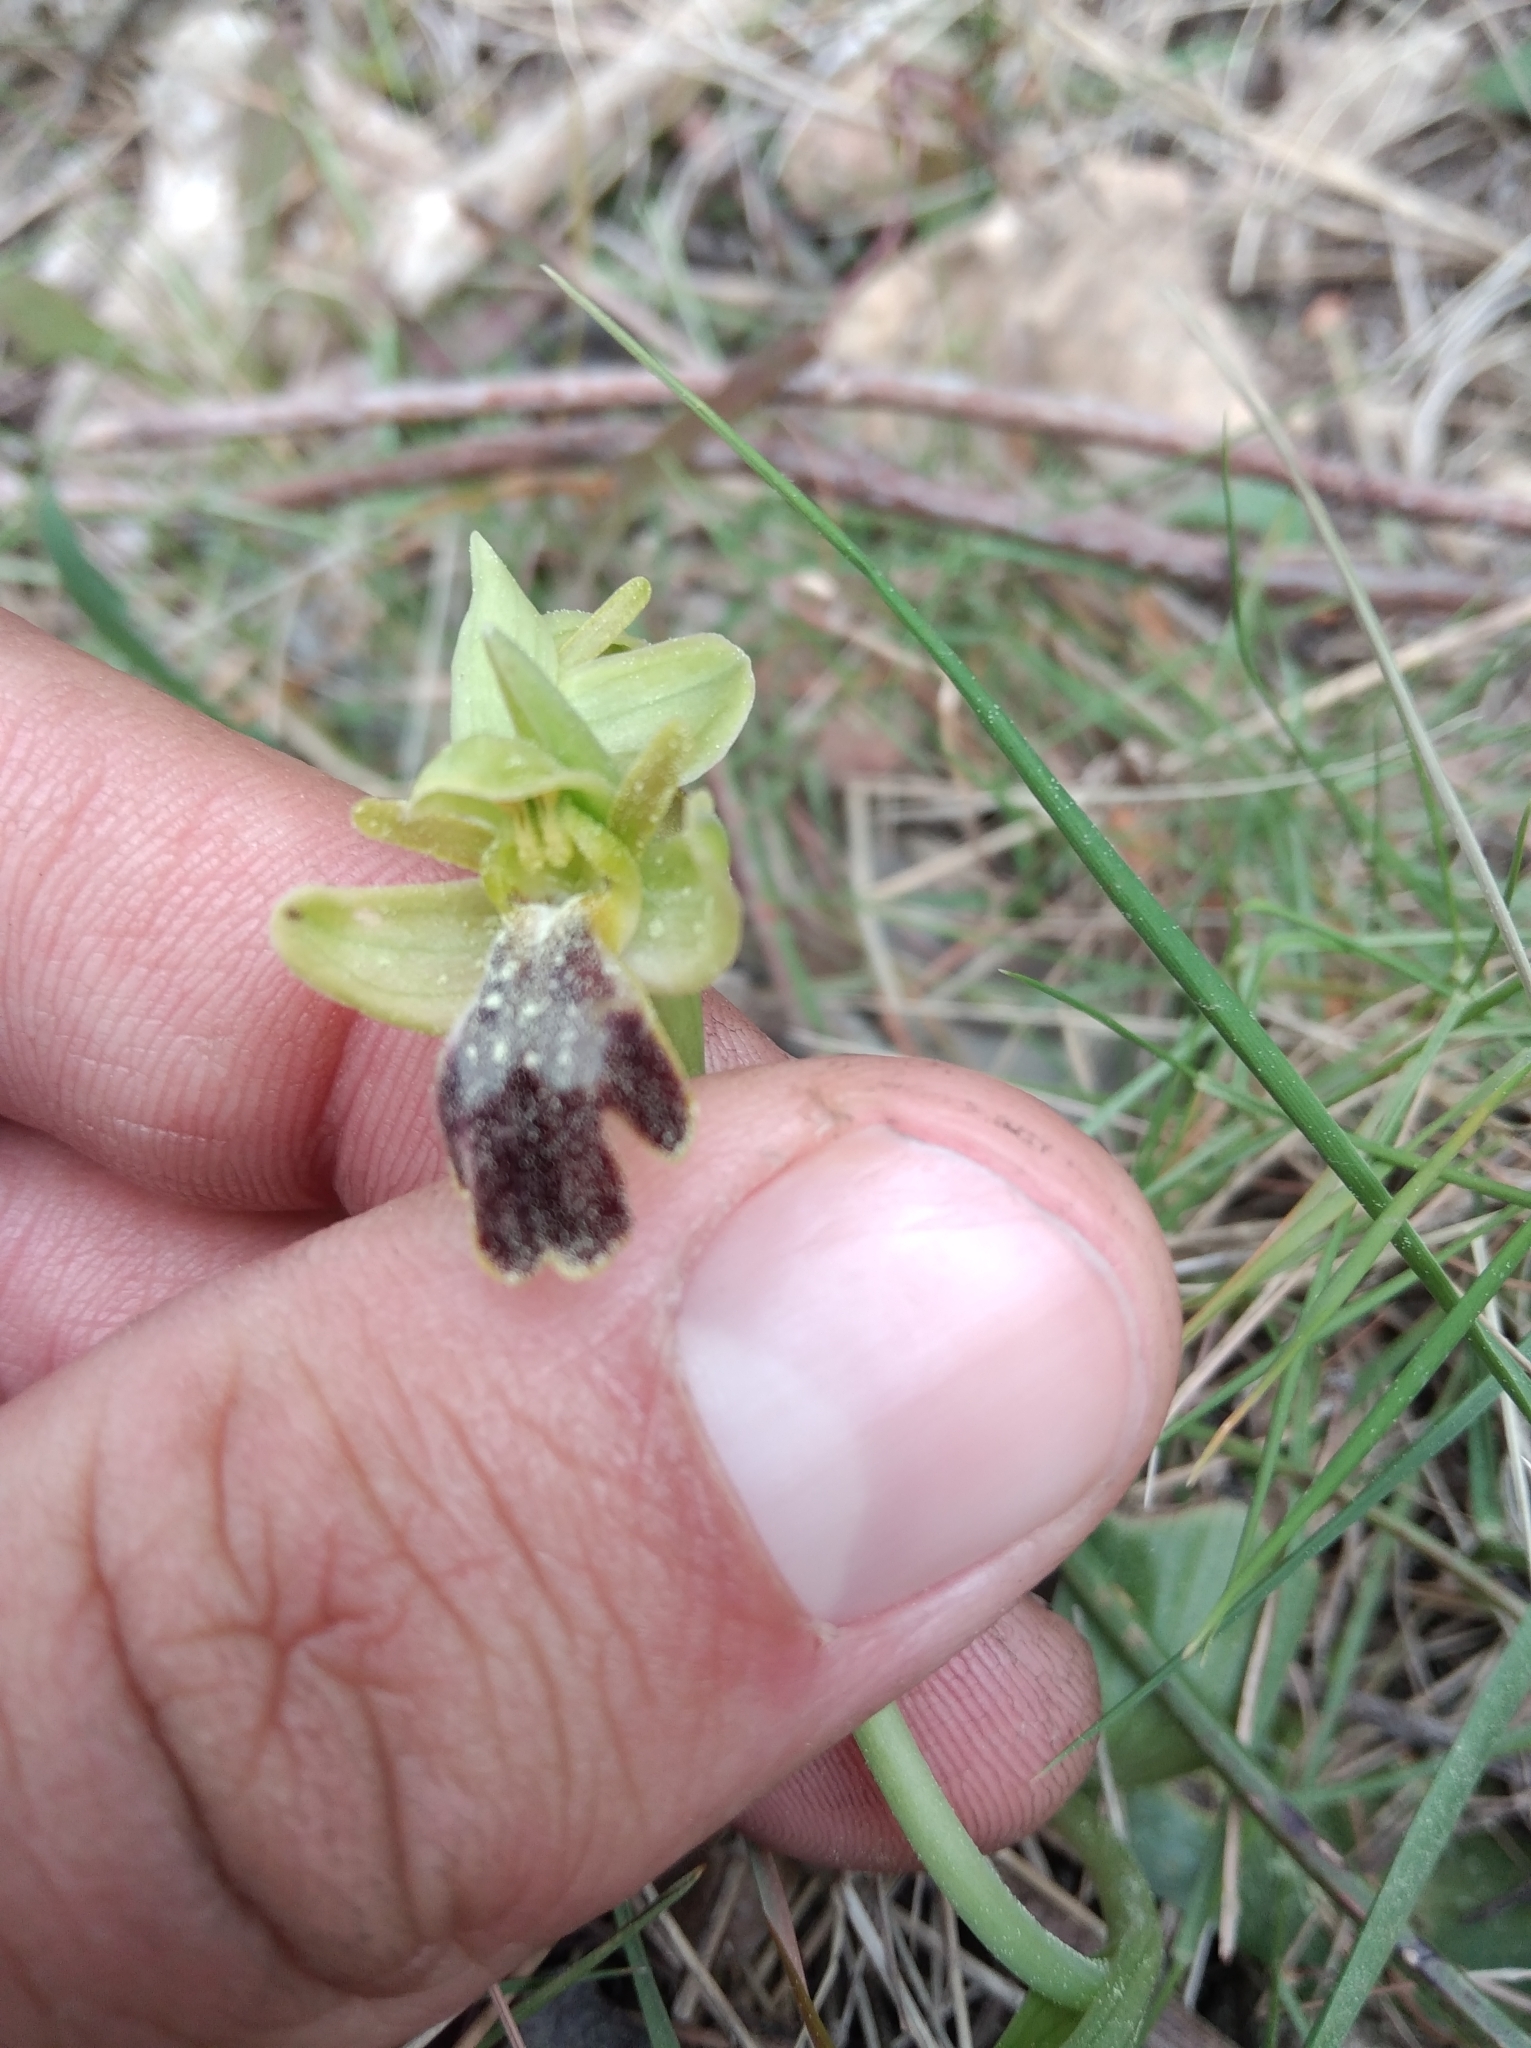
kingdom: Plantae
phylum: Tracheophyta
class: Liliopsida
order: Asparagales
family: Orchidaceae
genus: Ophrys
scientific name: Ophrys fusca
